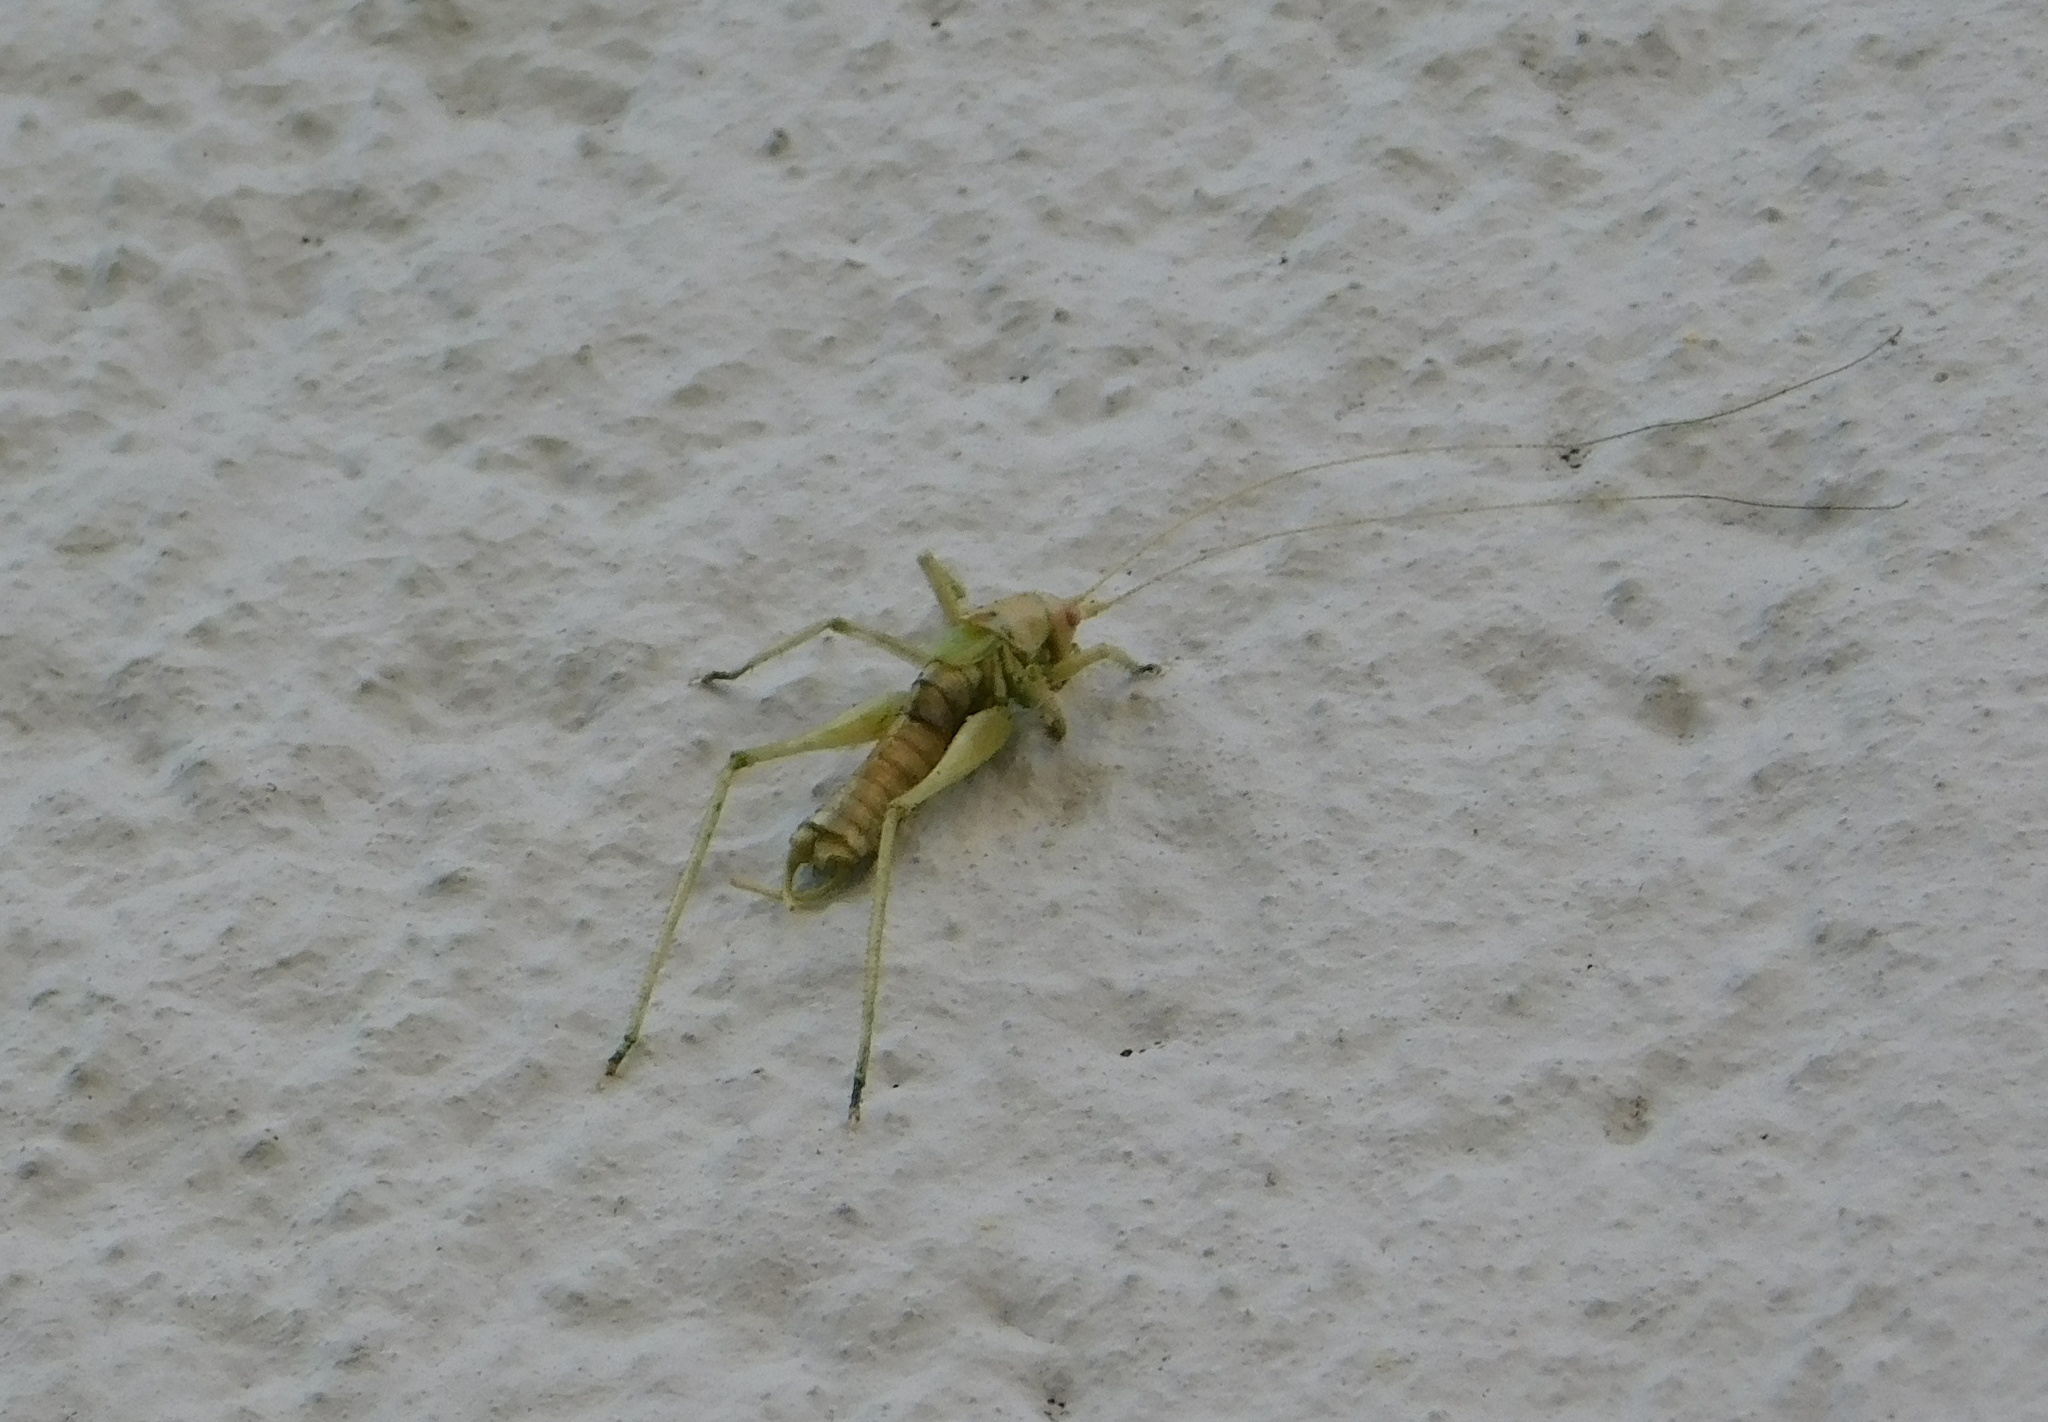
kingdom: Animalia
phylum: Arthropoda
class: Insecta
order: Orthoptera
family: Tettigoniidae
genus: Meconema
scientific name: Meconema meridionale
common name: Southern oak bush-cricket
